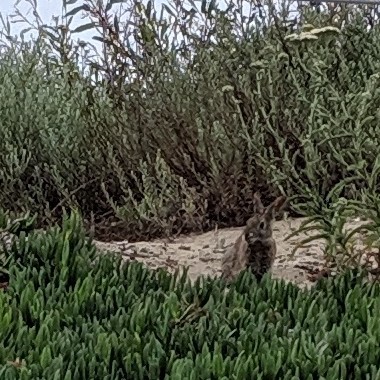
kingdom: Animalia
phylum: Chordata
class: Mammalia
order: Lagomorpha
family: Leporidae
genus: Sylvilagus
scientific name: Sylvilagus bachmani
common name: Brush rabbit
